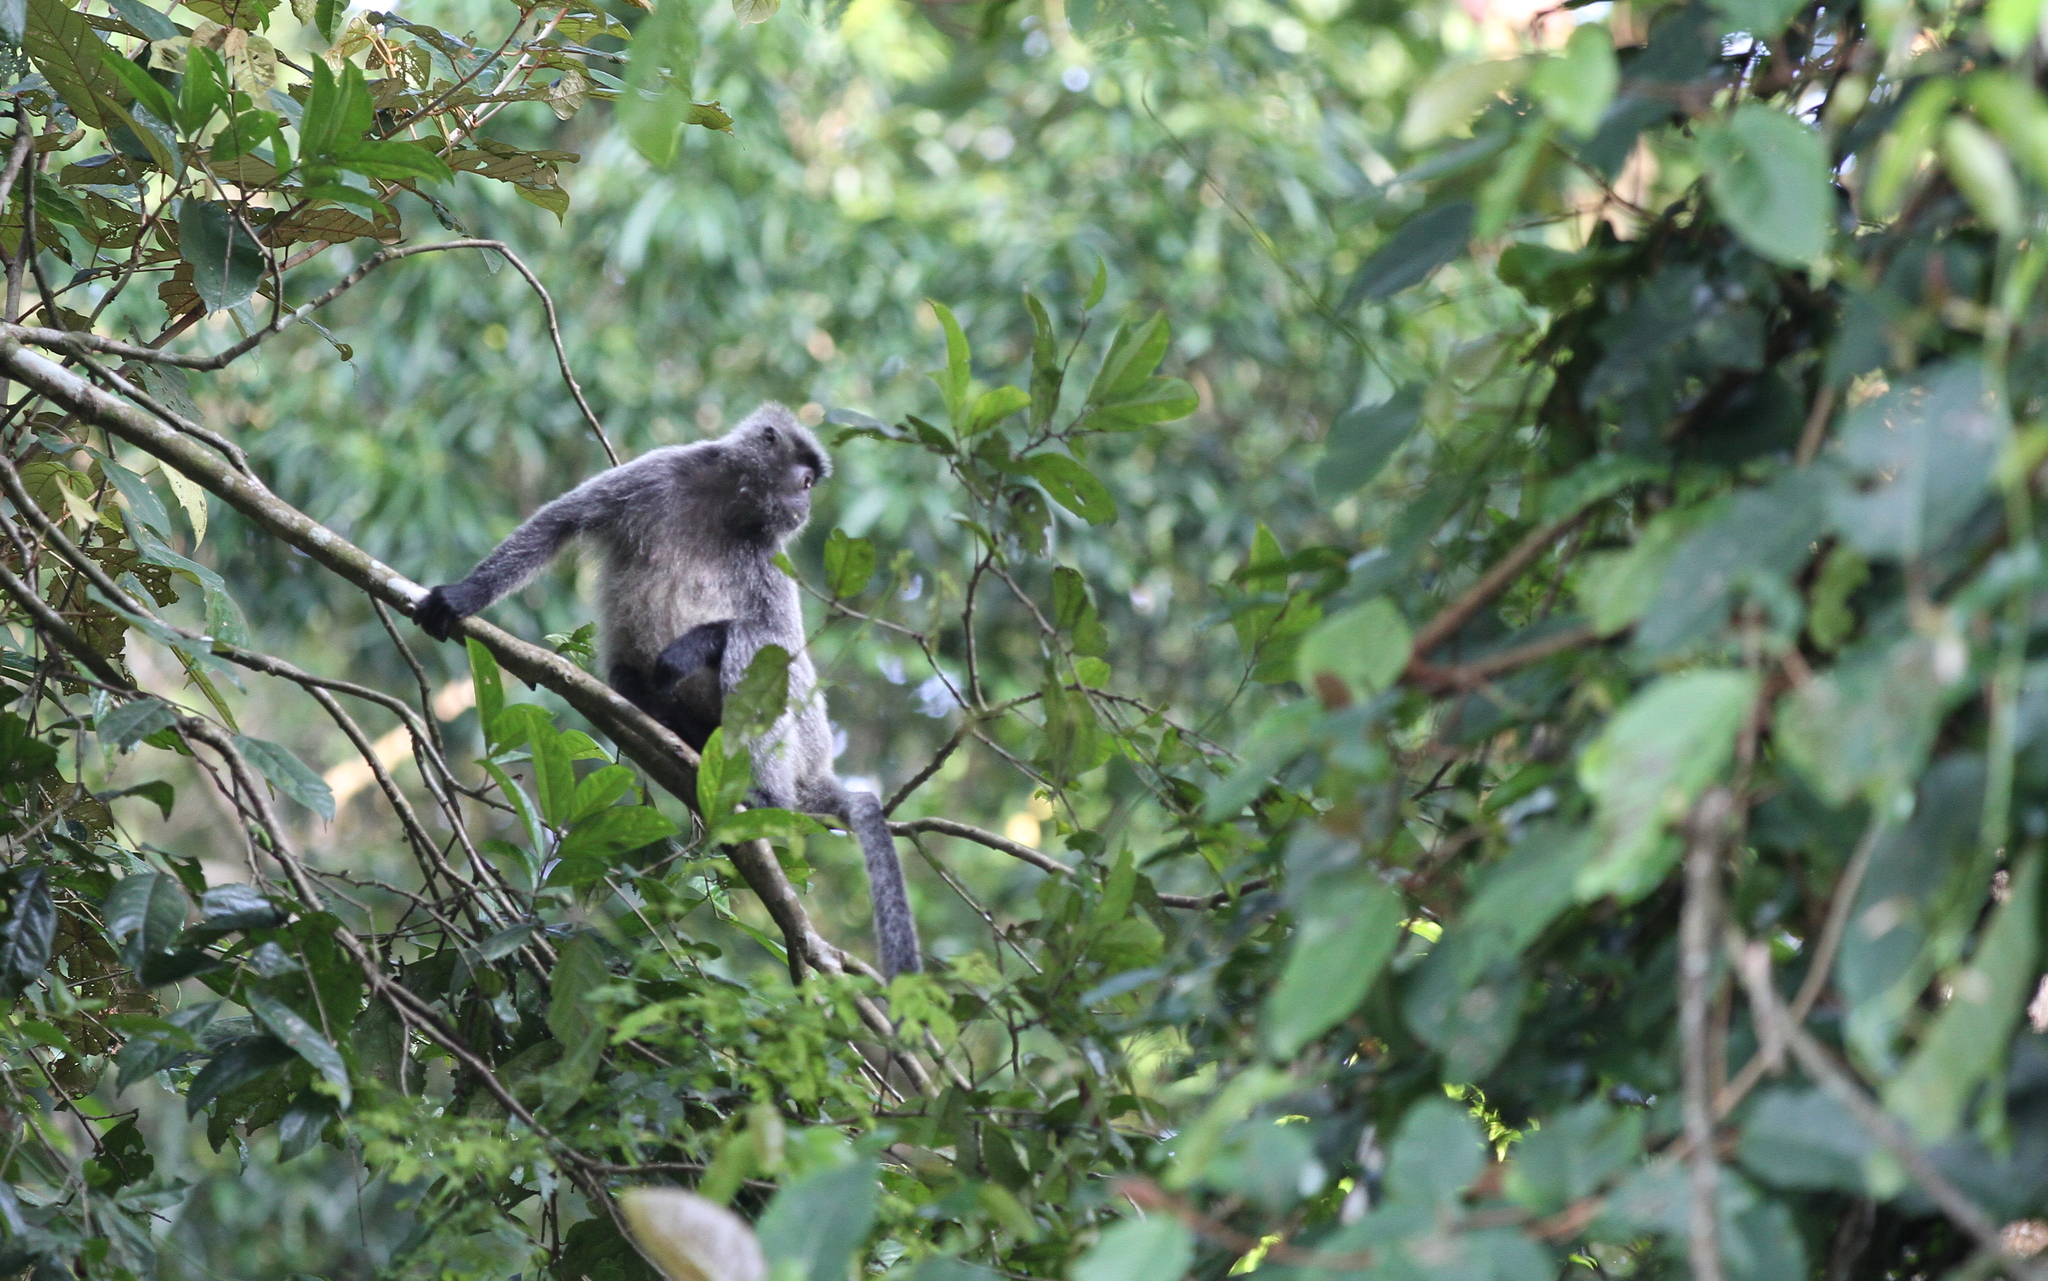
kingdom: Animalia
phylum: Chordata
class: Mammalia
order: Primates
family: Cercopithecidae
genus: Trachypithecus
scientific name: Trachypithecus cristatus
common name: Silvery lutung
